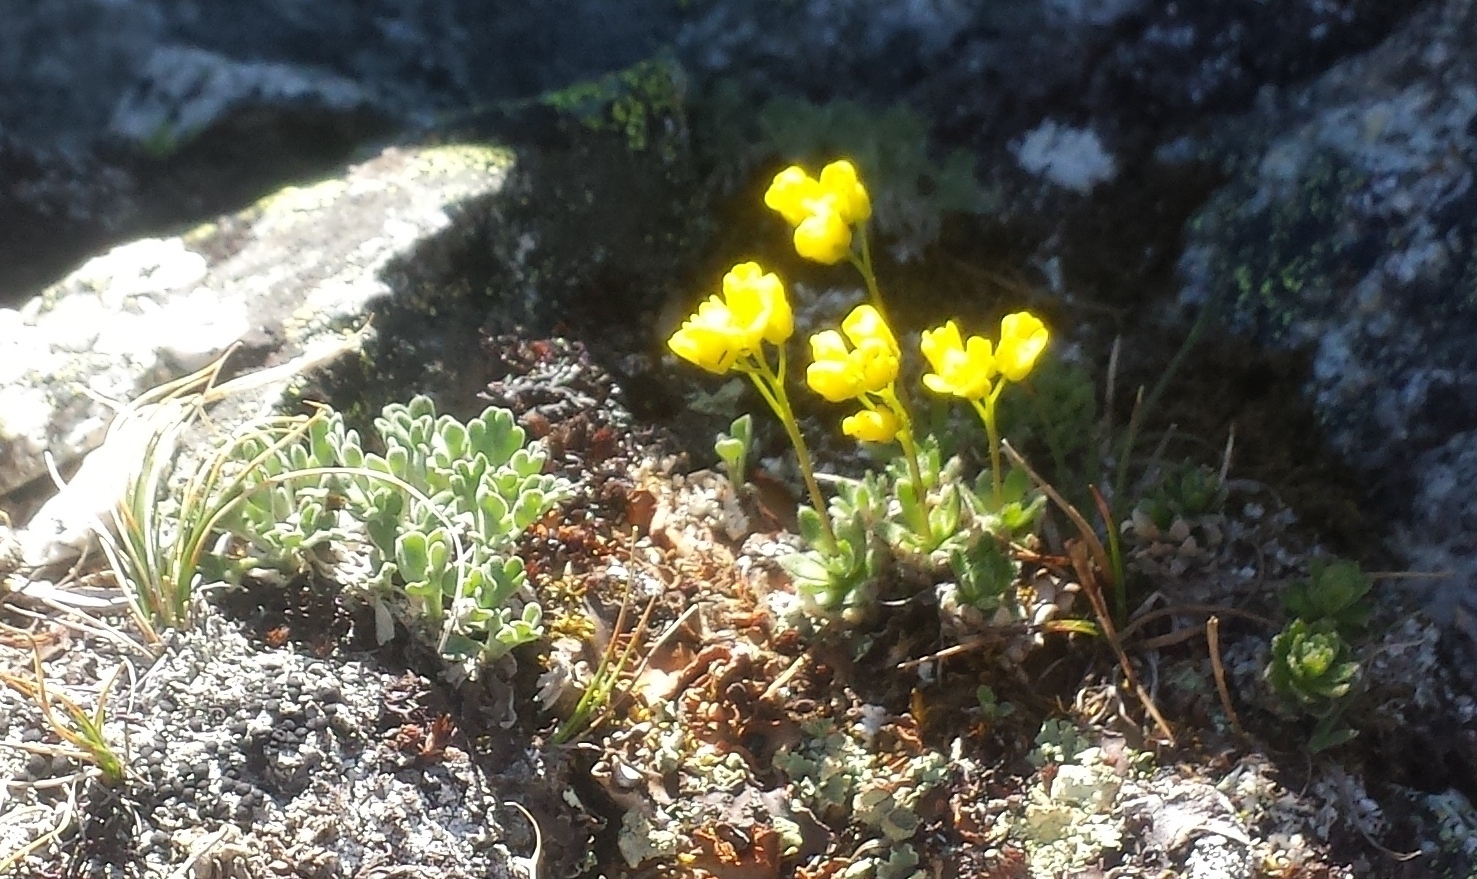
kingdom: Plantae
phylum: Tracheophyta
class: Magnoliopsida
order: Brassicales
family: Brassicaceae
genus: Draba
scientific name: Draba incerta
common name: Yellowstone draba
